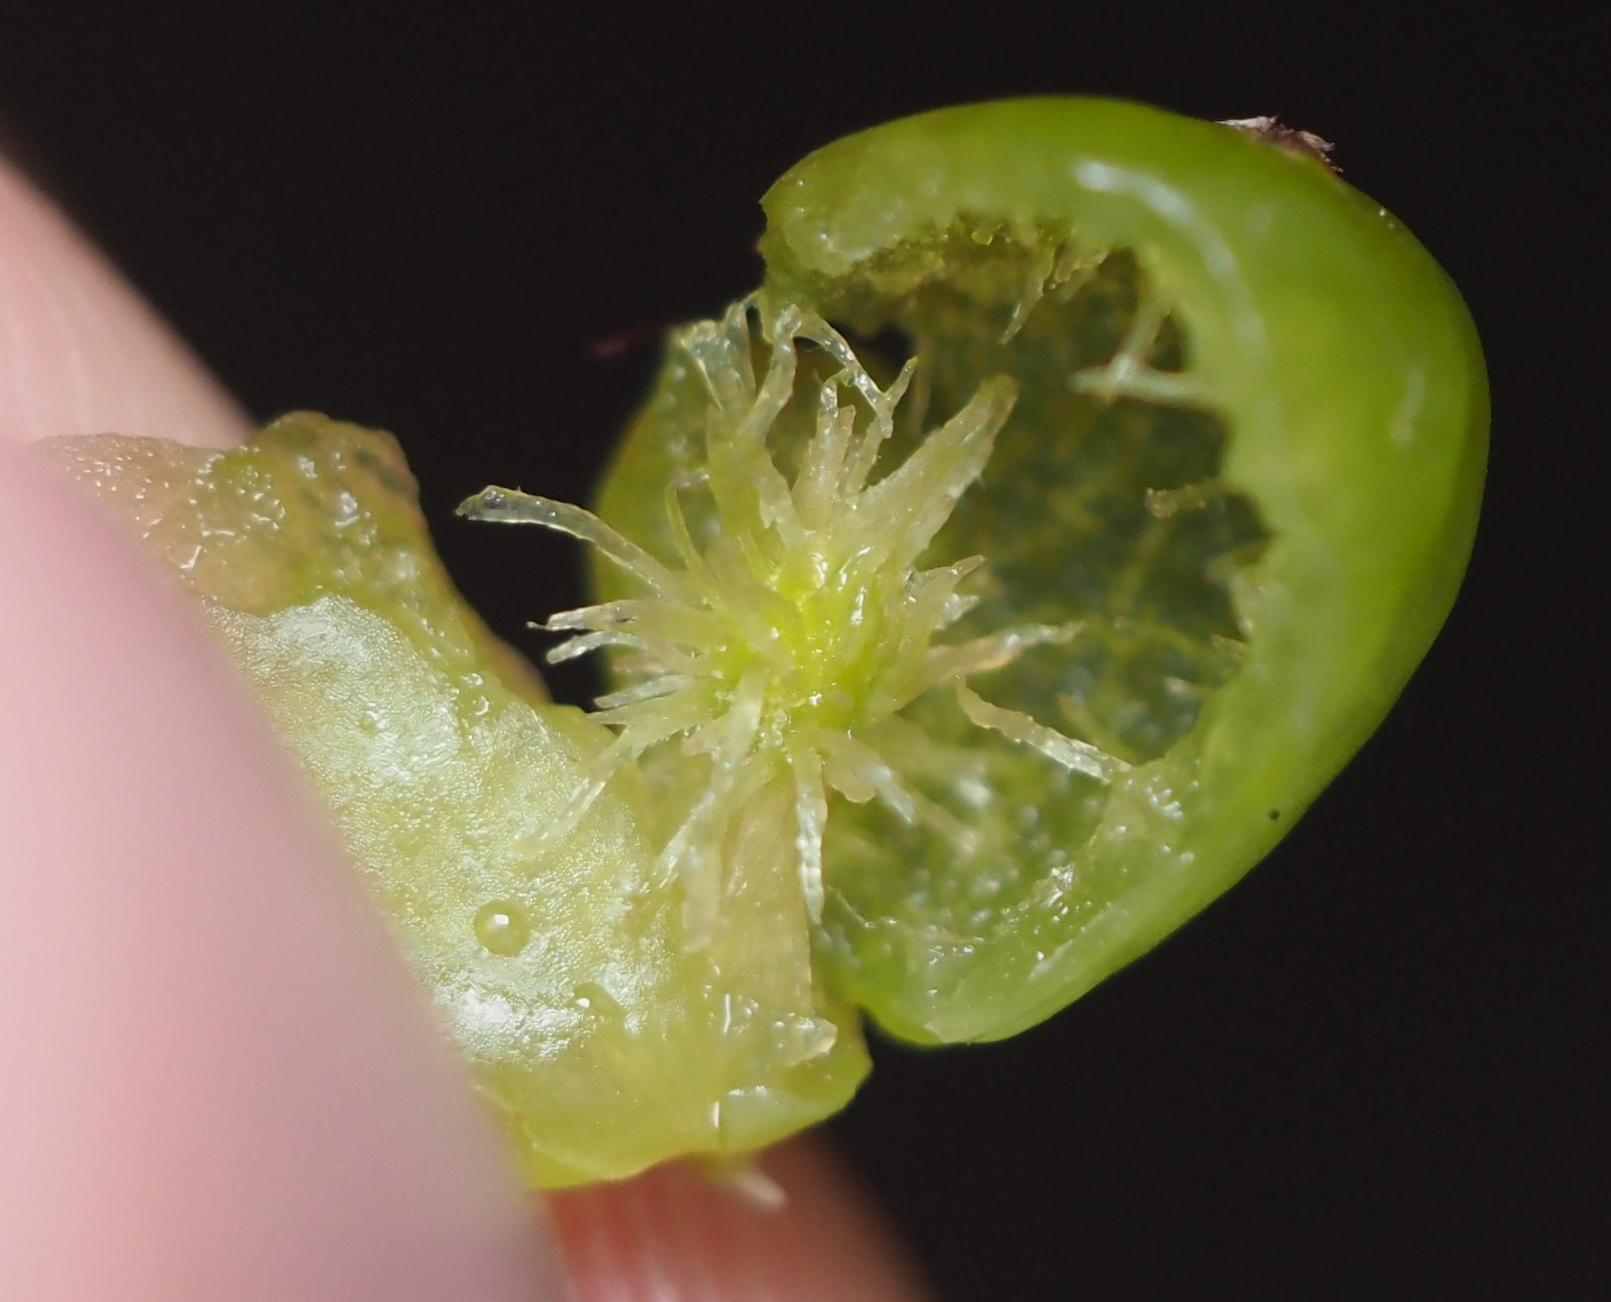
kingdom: Animalia
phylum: Arthropoda
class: Insecta
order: Hymenoptera
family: Cynipidae
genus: Amphibolips
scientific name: Amphibolips
